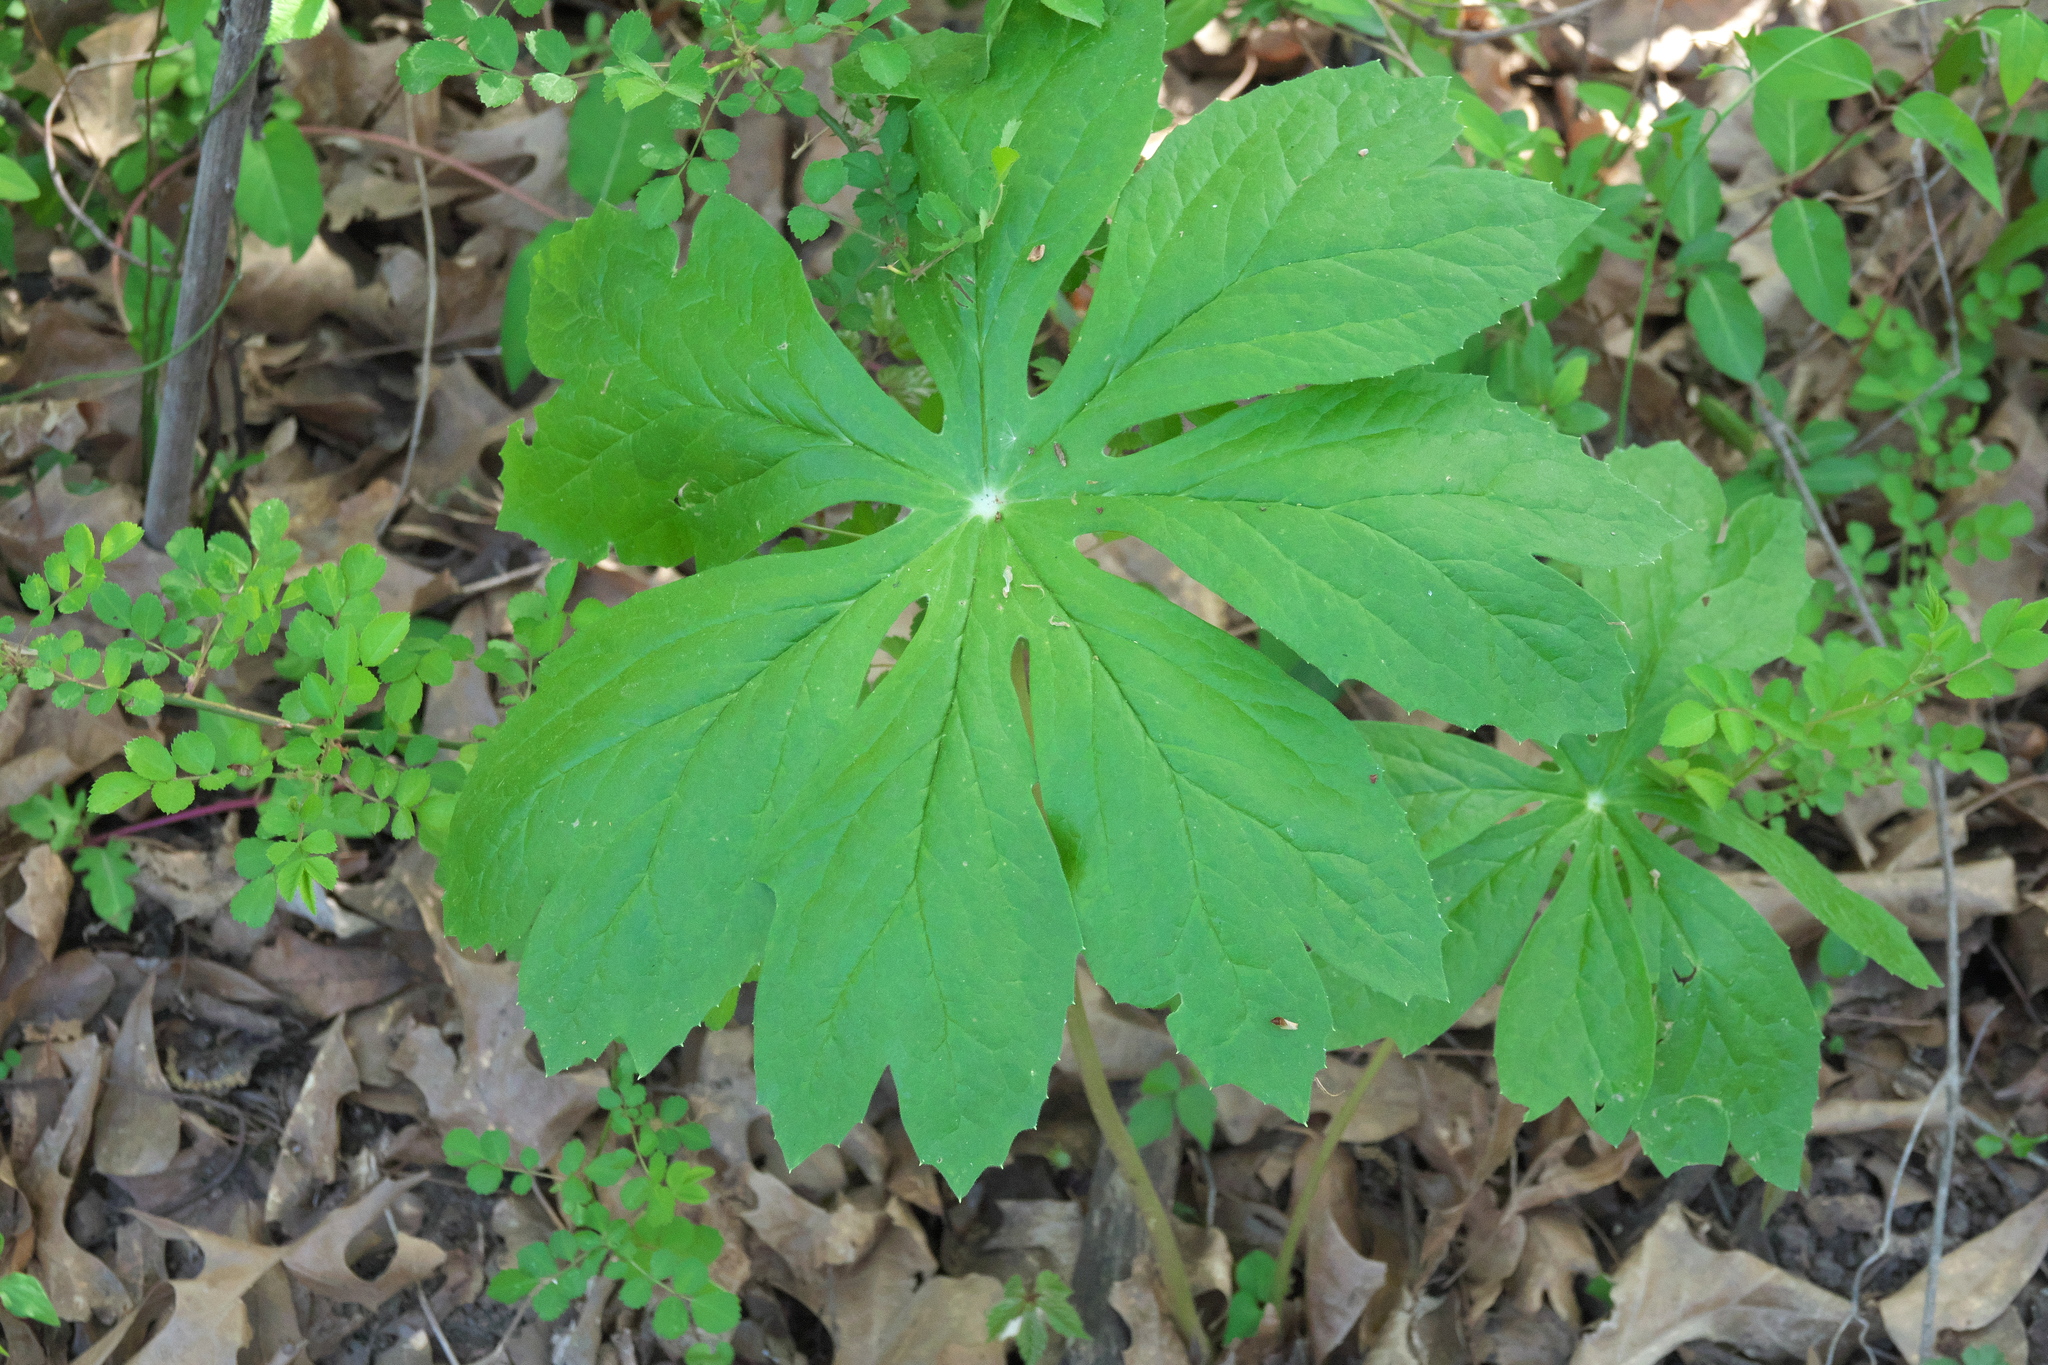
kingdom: Plantae
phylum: Tracheophyta
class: Magnoliopsida
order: Ranunculales
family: Berberidaceae
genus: Podophyllum
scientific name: Podophyllum peltatum
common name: Wild mandrake
